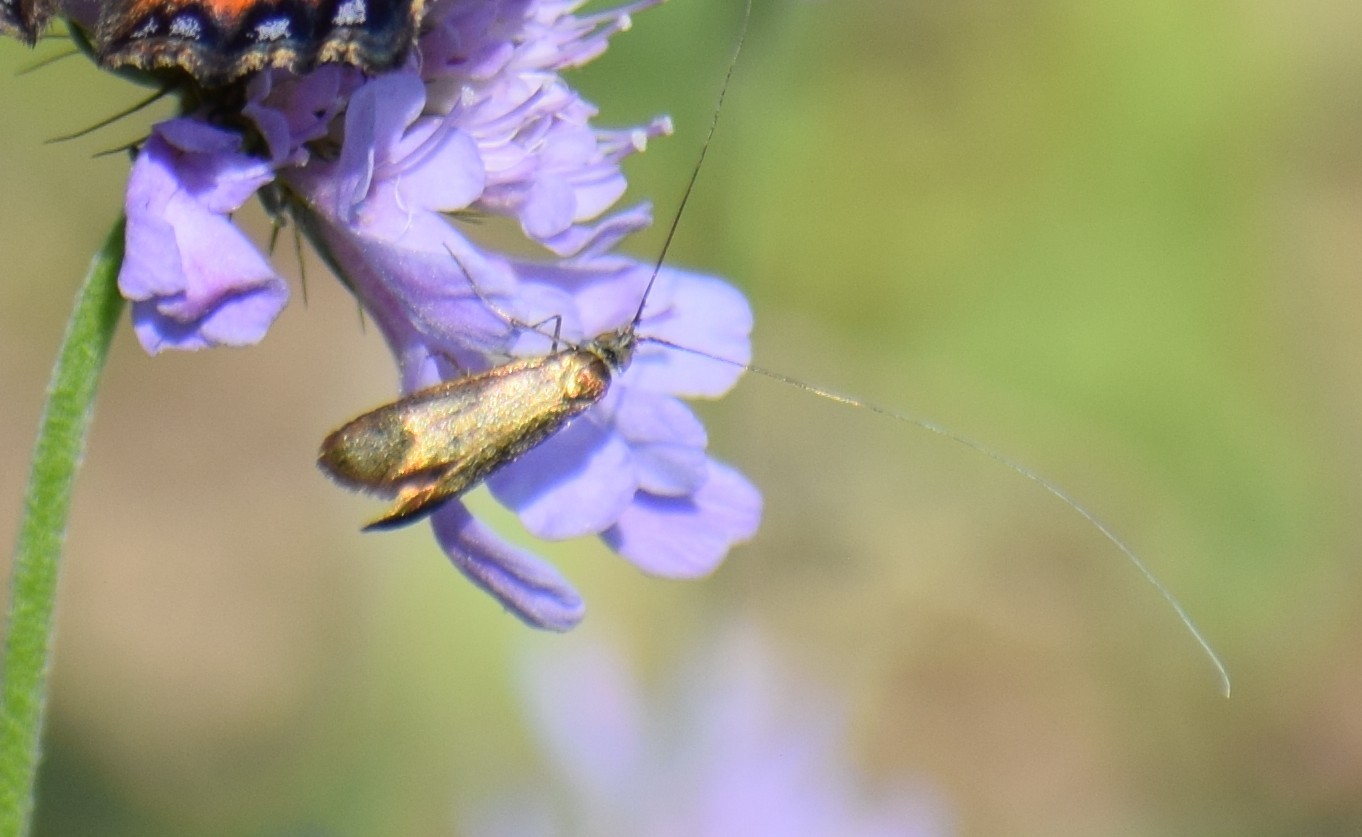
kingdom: Animalia
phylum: Arthropoda
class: Insecta
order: Lepidoptera
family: Adelidae
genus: Nemophora
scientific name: Nemophora metallica
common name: Brassy long-horn
